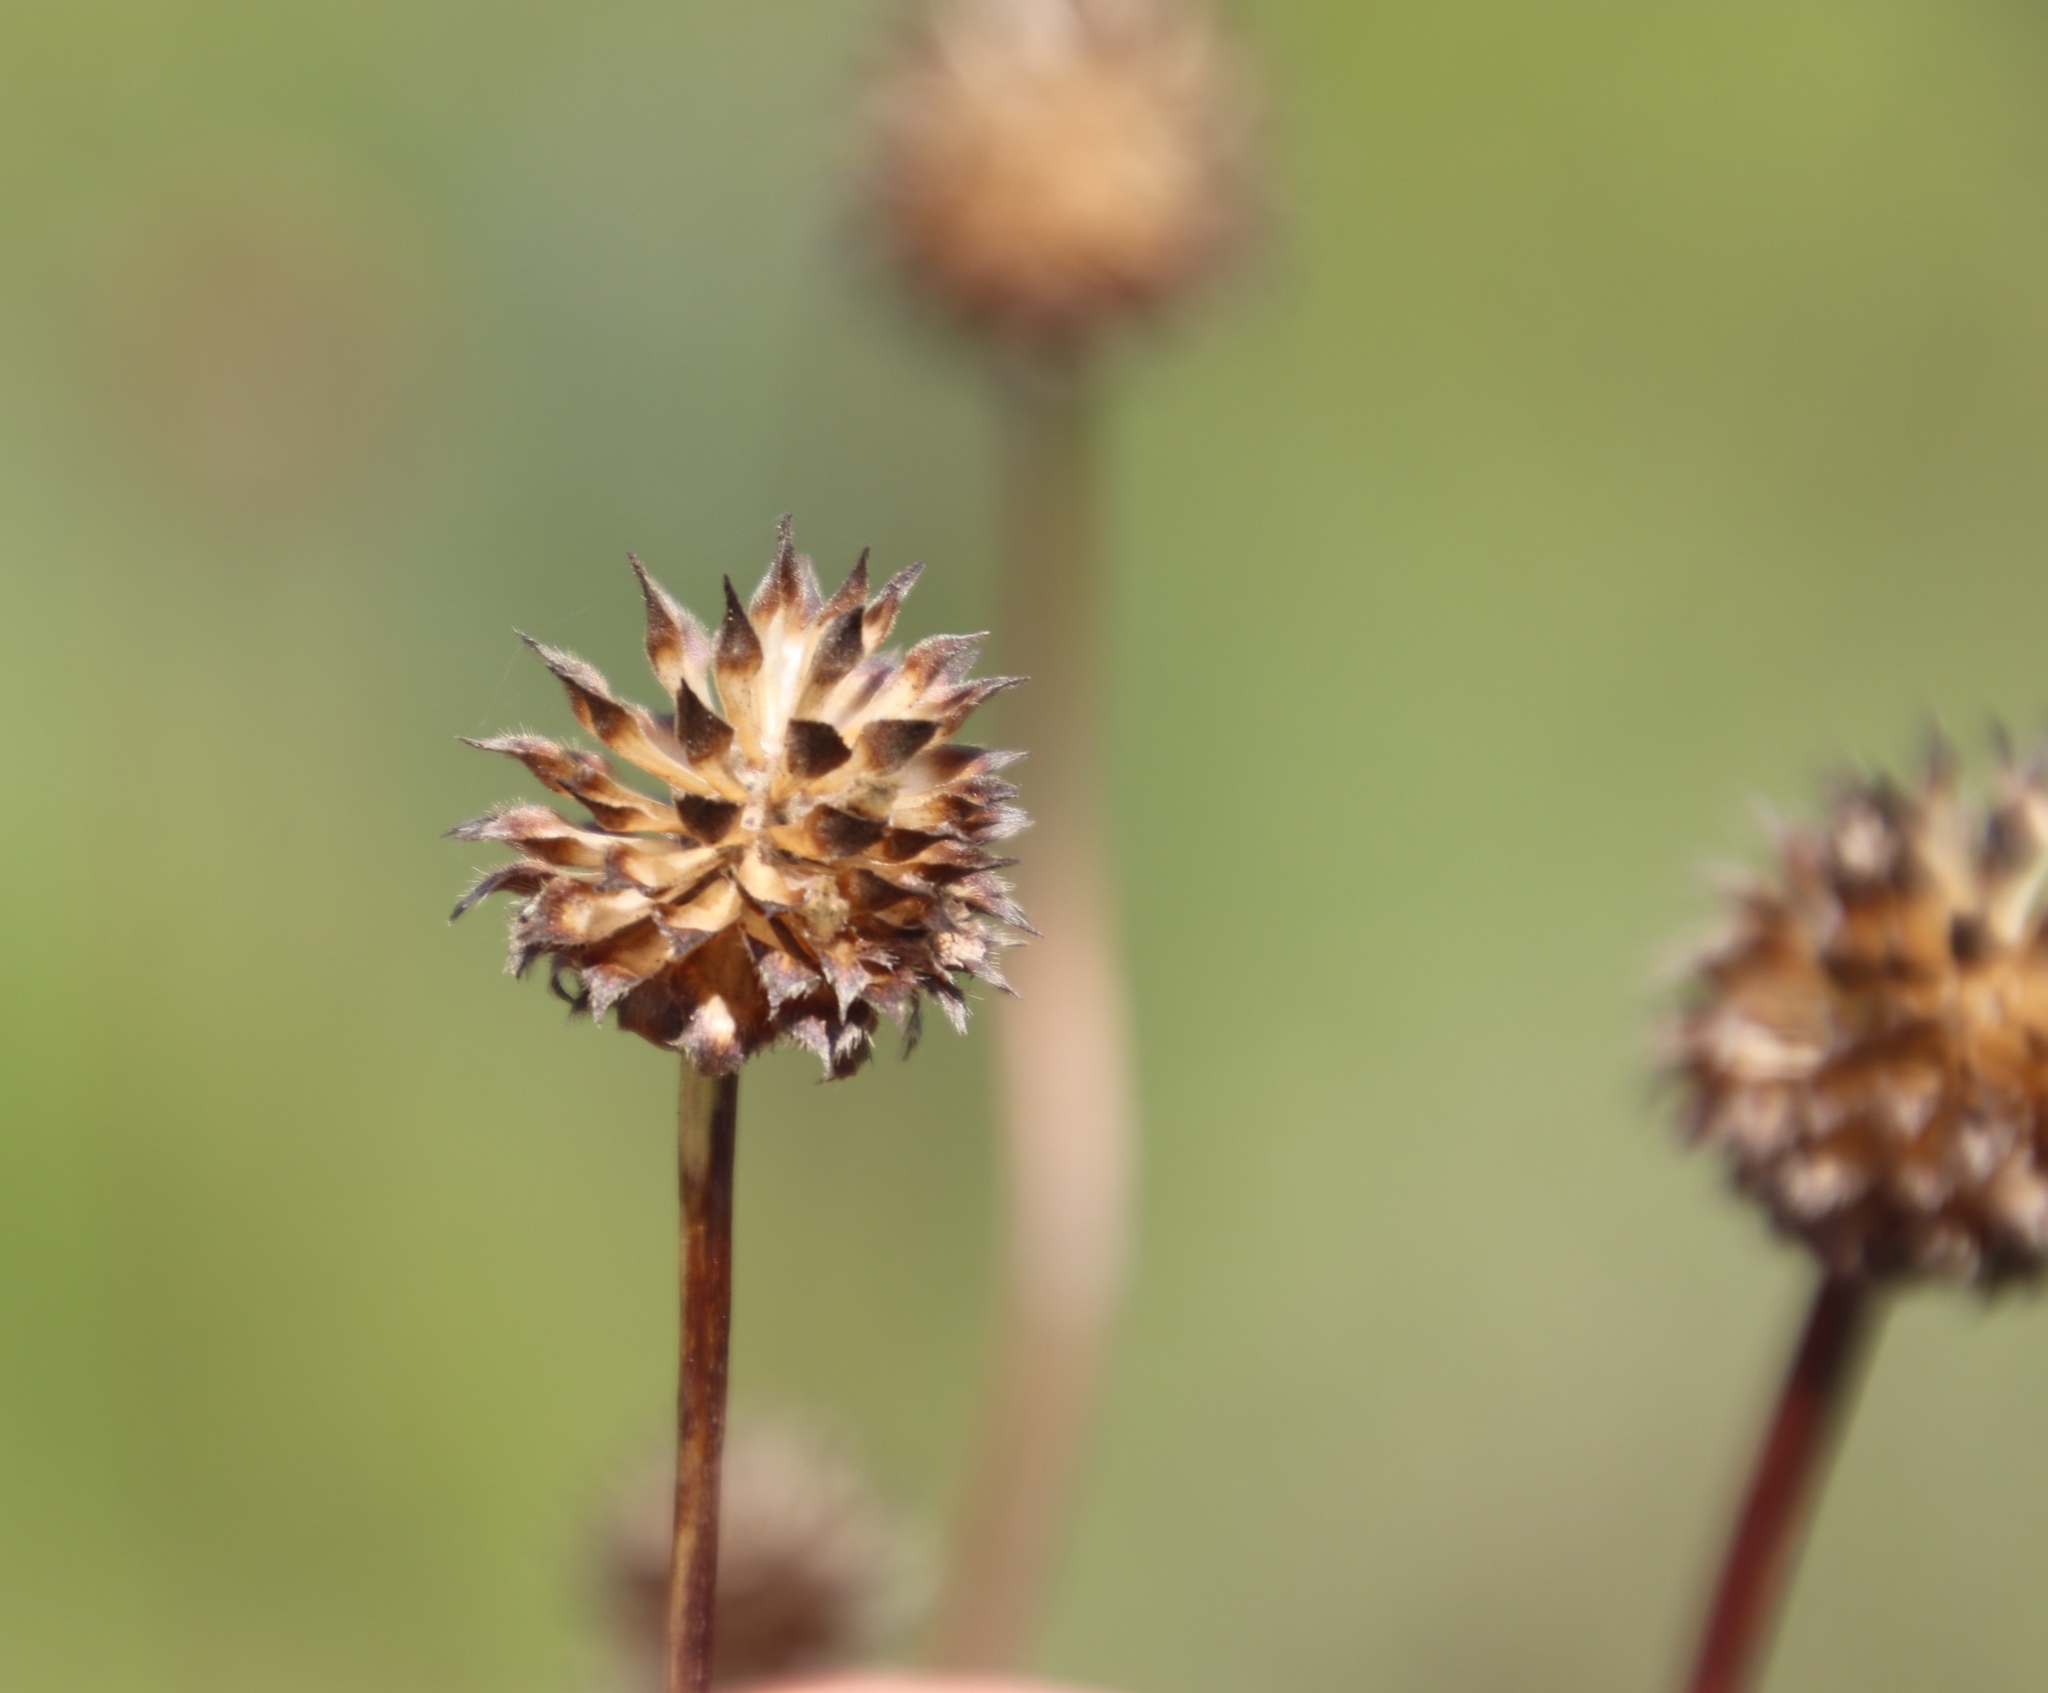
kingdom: Plantae
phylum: Tracheophyta
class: Magnoliopsida
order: Dipsacales
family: Caprifoliaceae
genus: Cephalaria
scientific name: Cephalaria zeyheriana
